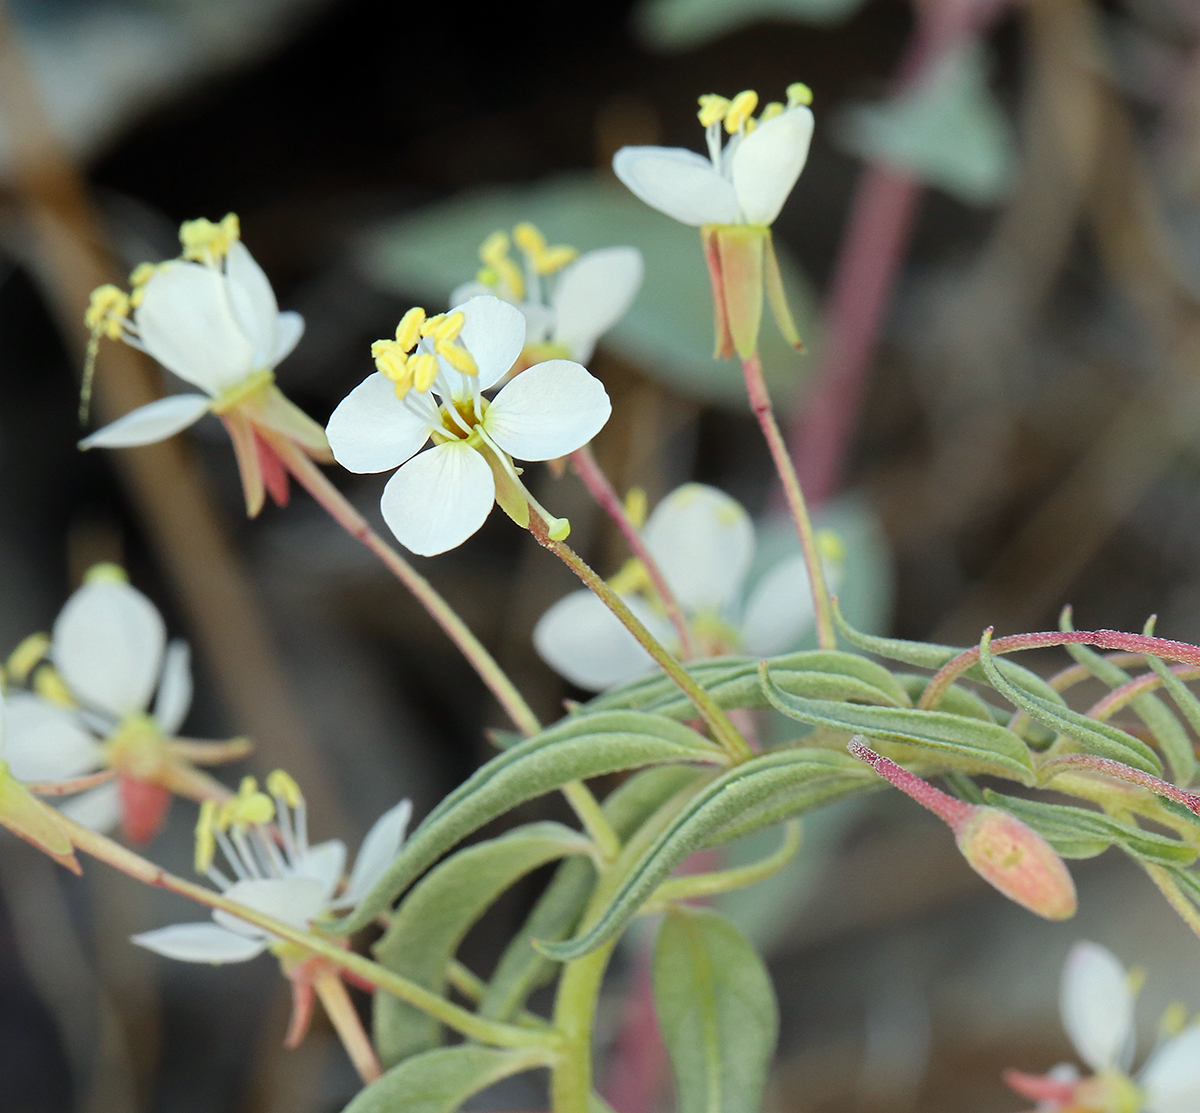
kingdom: Plantae
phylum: Tracheophyta
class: Magnoliopsida
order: Myrtales
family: Onagraceae
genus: Eremothera
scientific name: Eremothera boothii
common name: Booth's evening primrose
